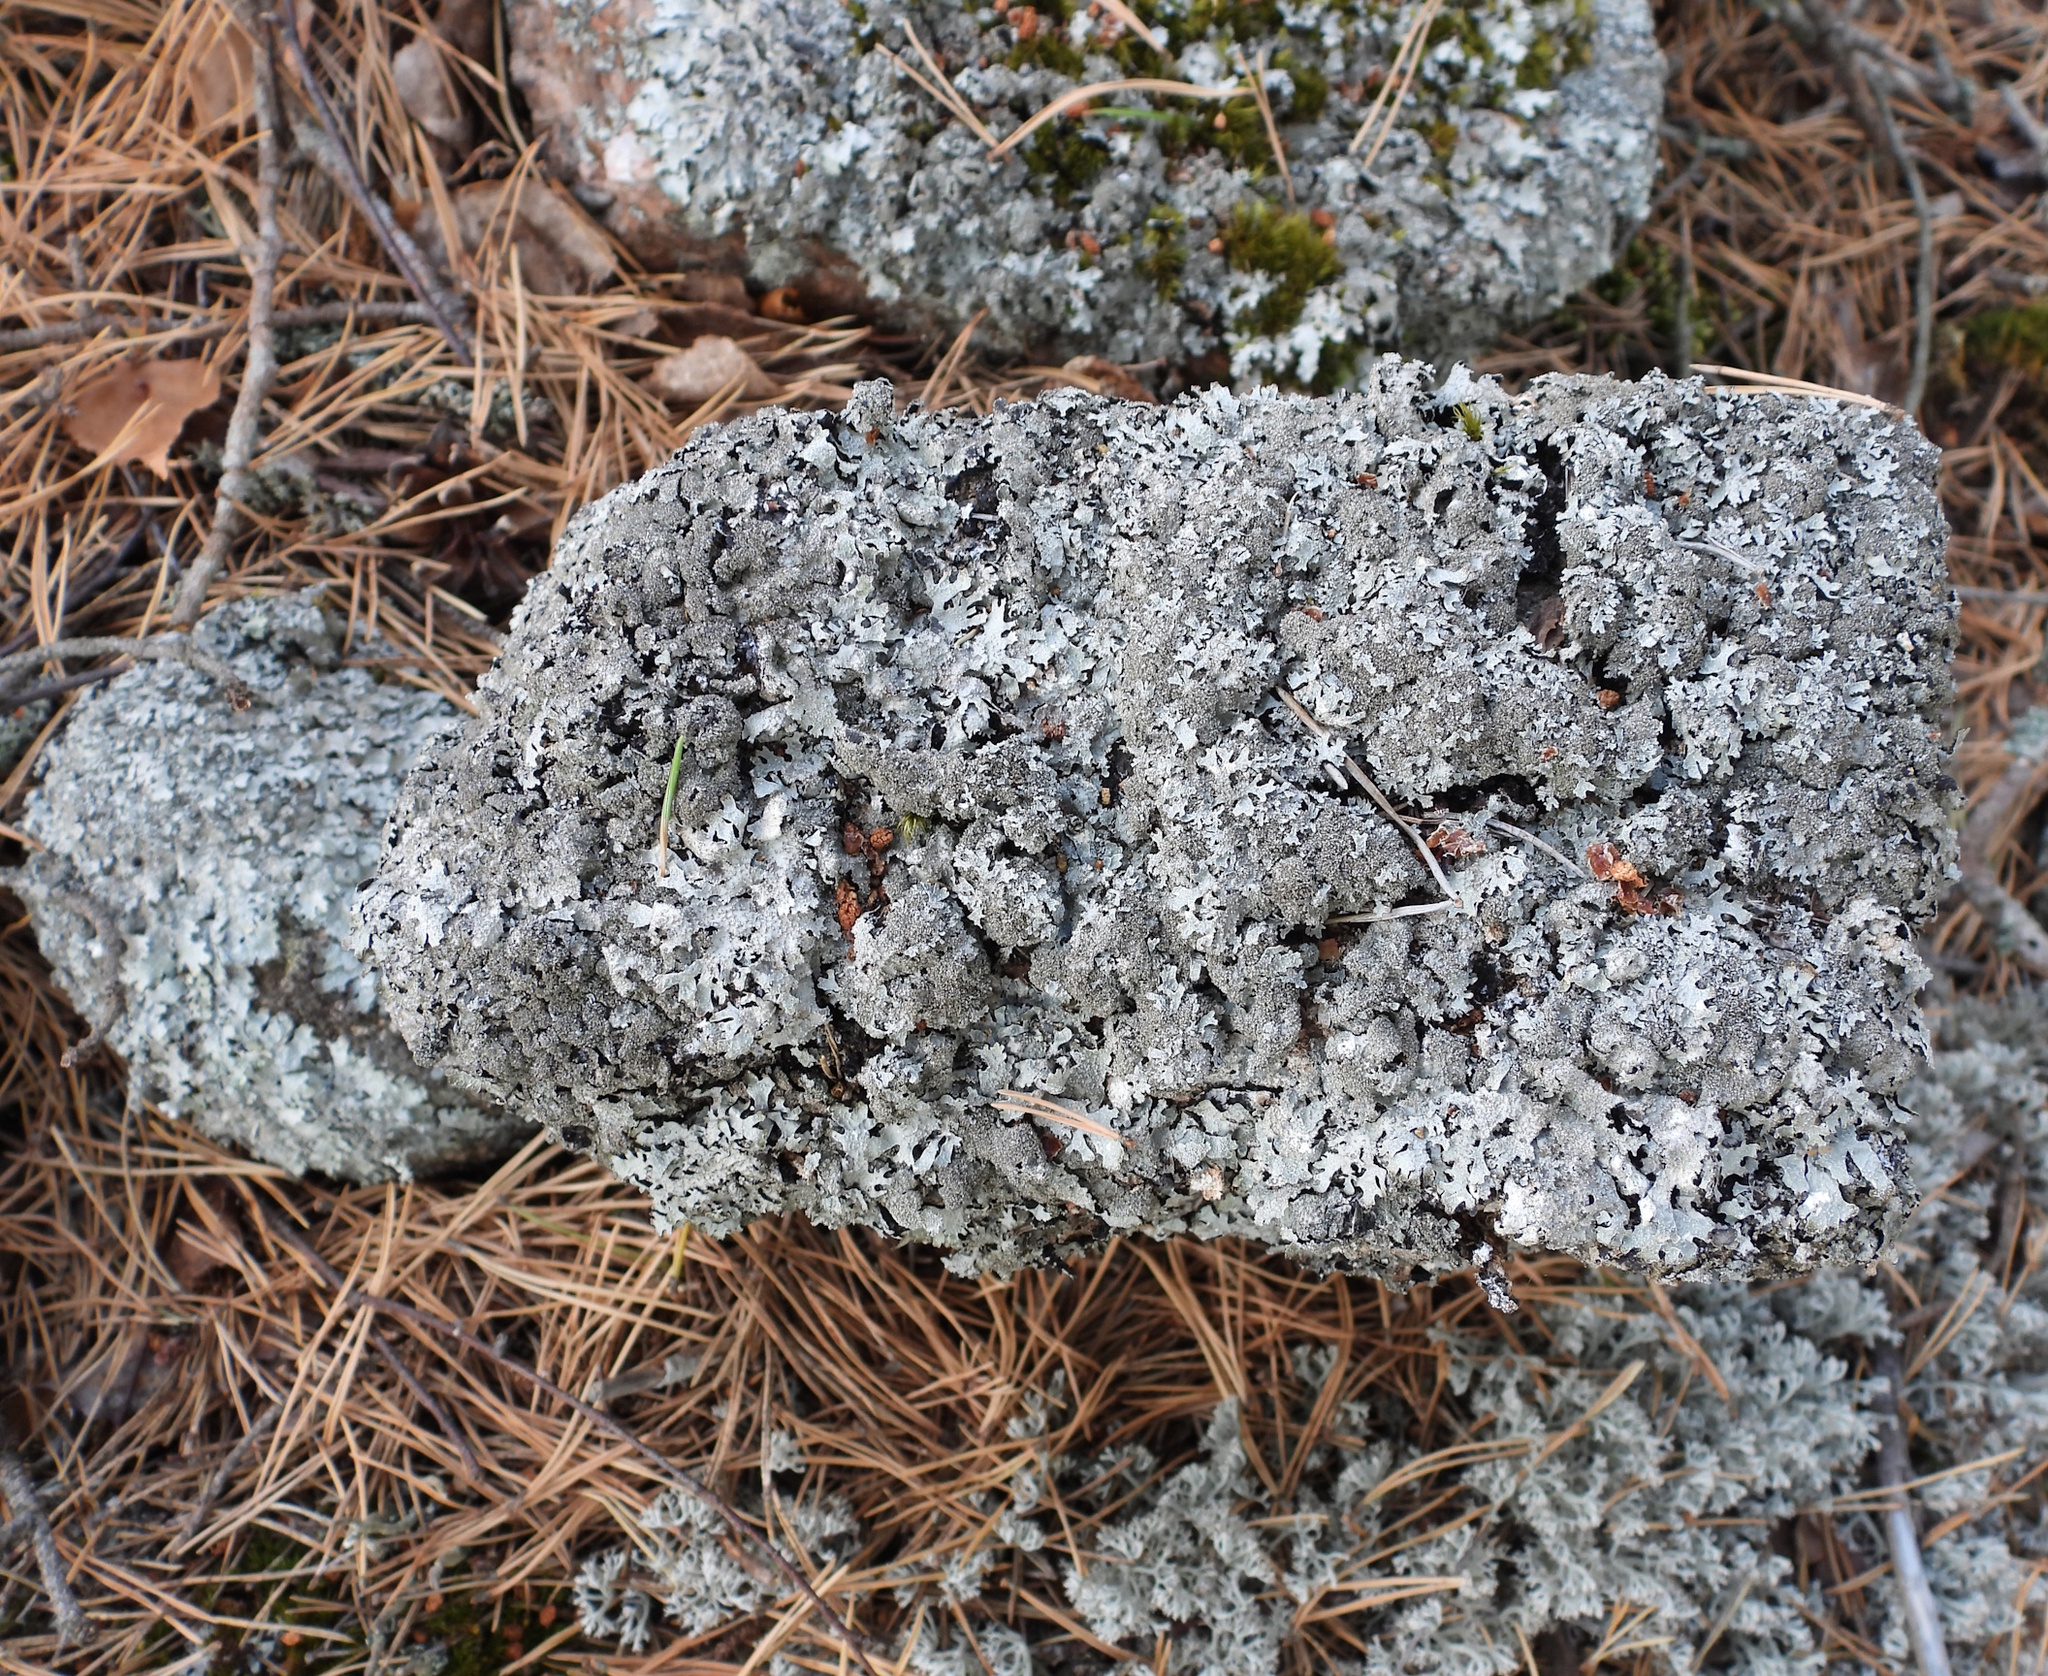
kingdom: Fungi
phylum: Ascomycota
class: Lecanoromycetes
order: Lecanorales
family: Parmeliaceae
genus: Parmelia
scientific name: Parmelia saxatilis
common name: Salted shield lichen
